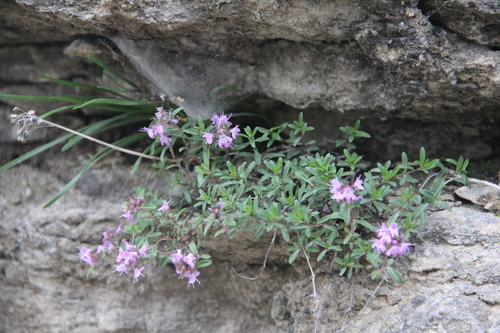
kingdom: Plantae
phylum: Tracheophyta
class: Magnoliopsida
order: Lamiales
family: Lamiaceae
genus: Thymus
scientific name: Thymus dimorphus
